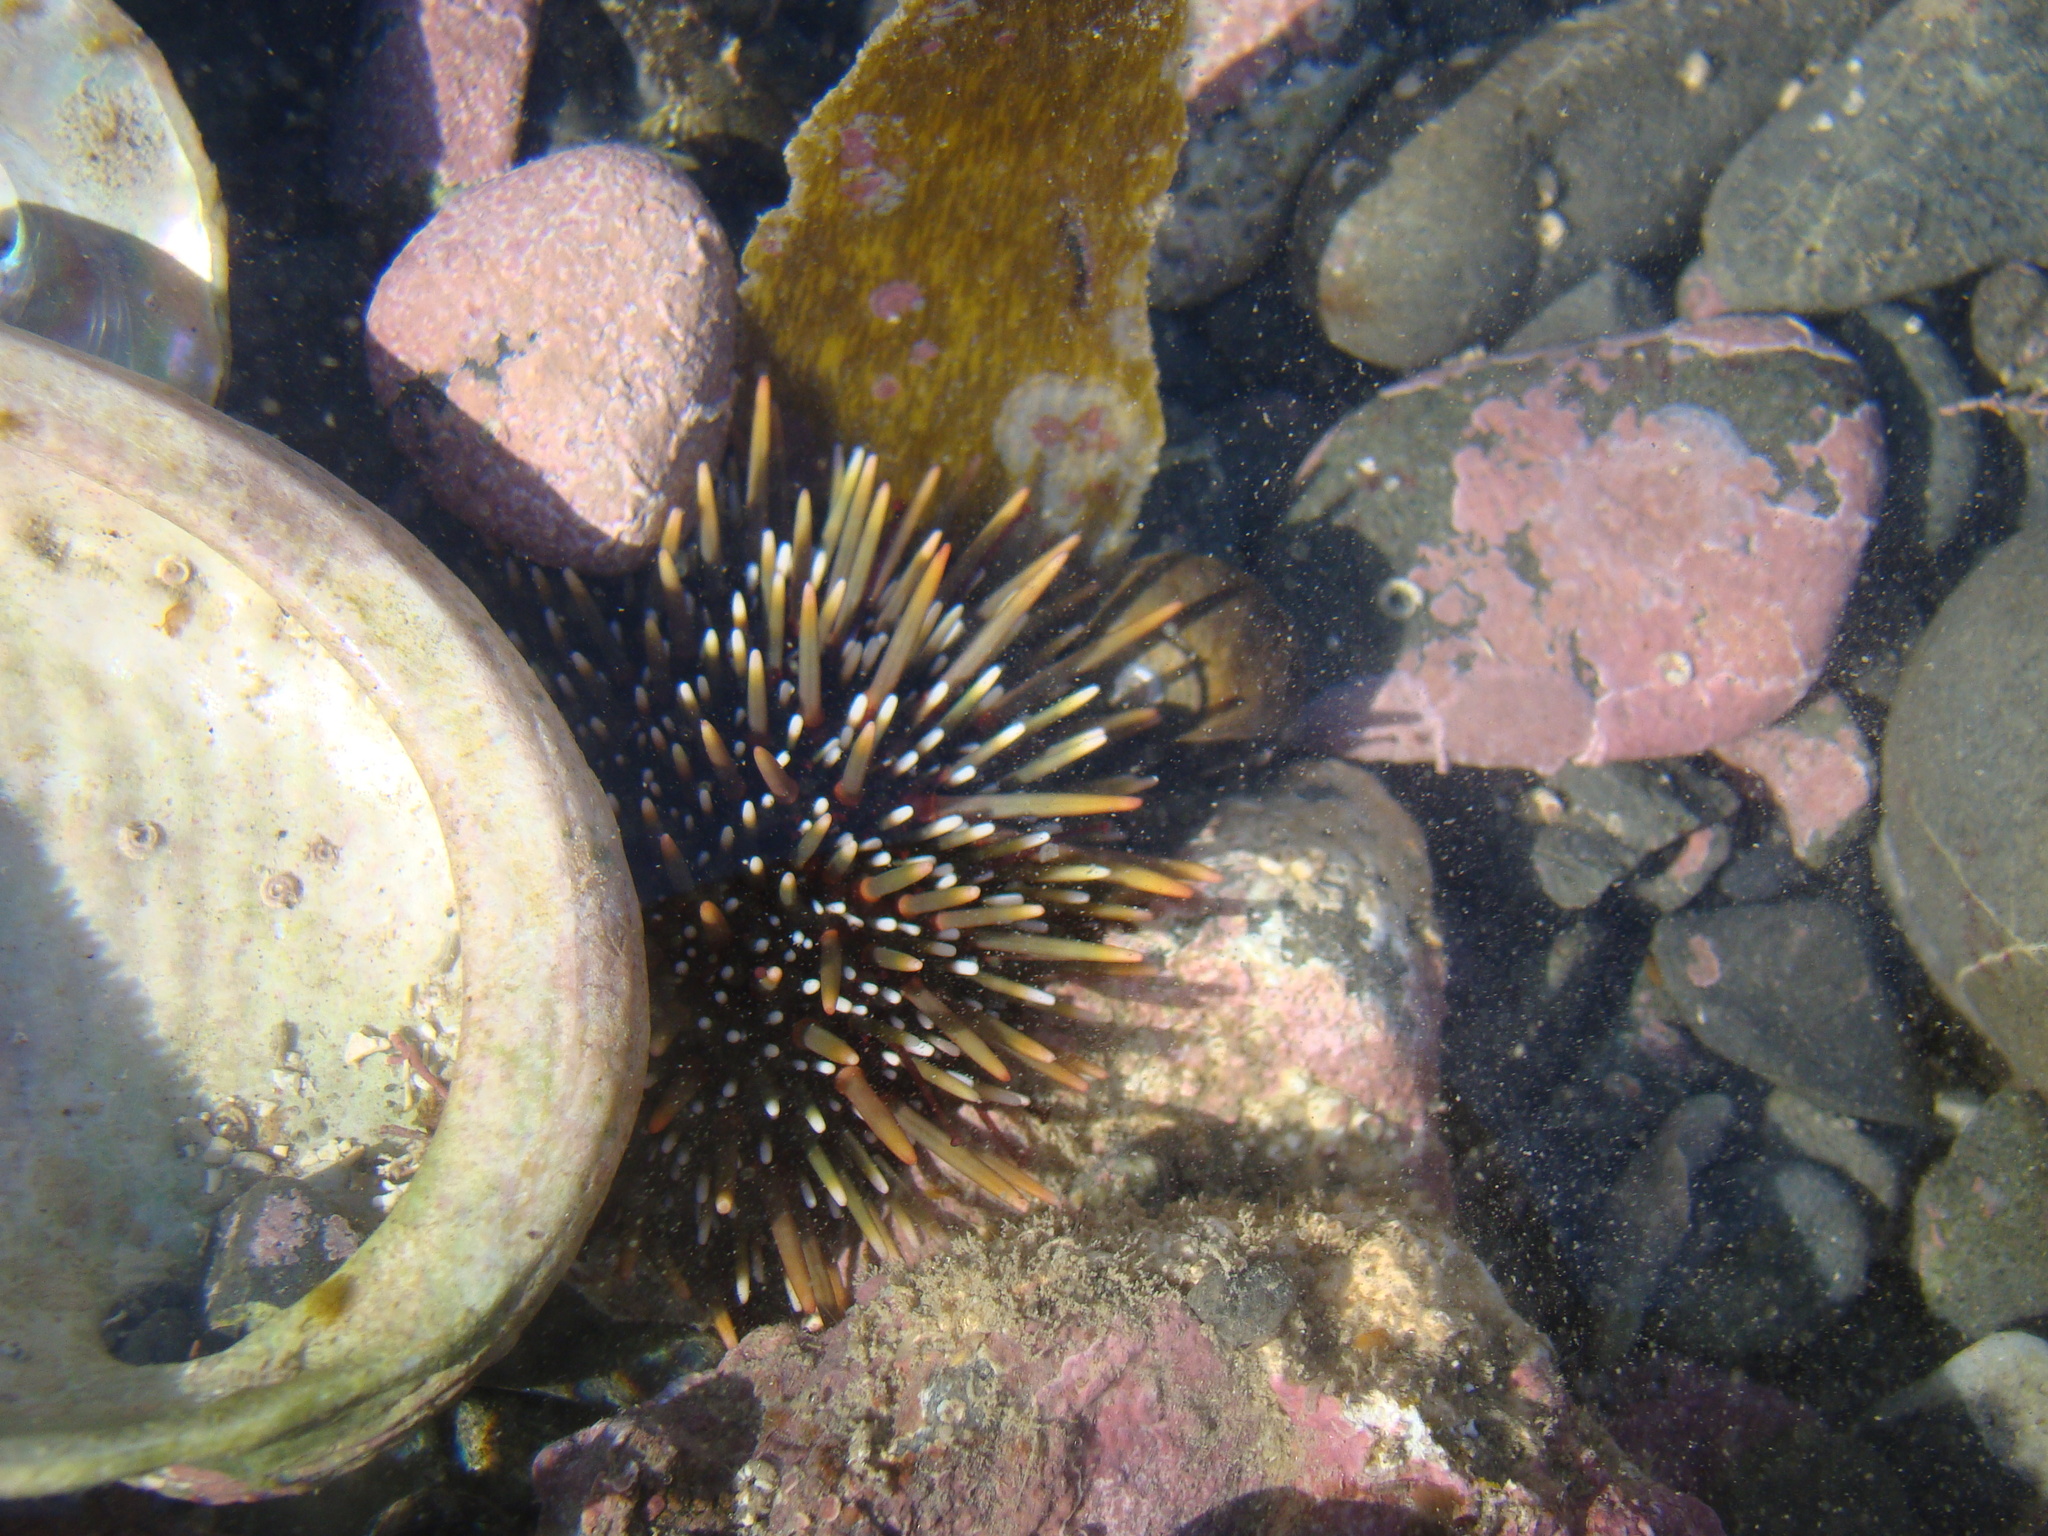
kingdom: Animalia
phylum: Echinodermata
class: Echinoidea
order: Camarodonta
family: Echinometridae
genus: Evechinus
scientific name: Evechinus chloroticus
